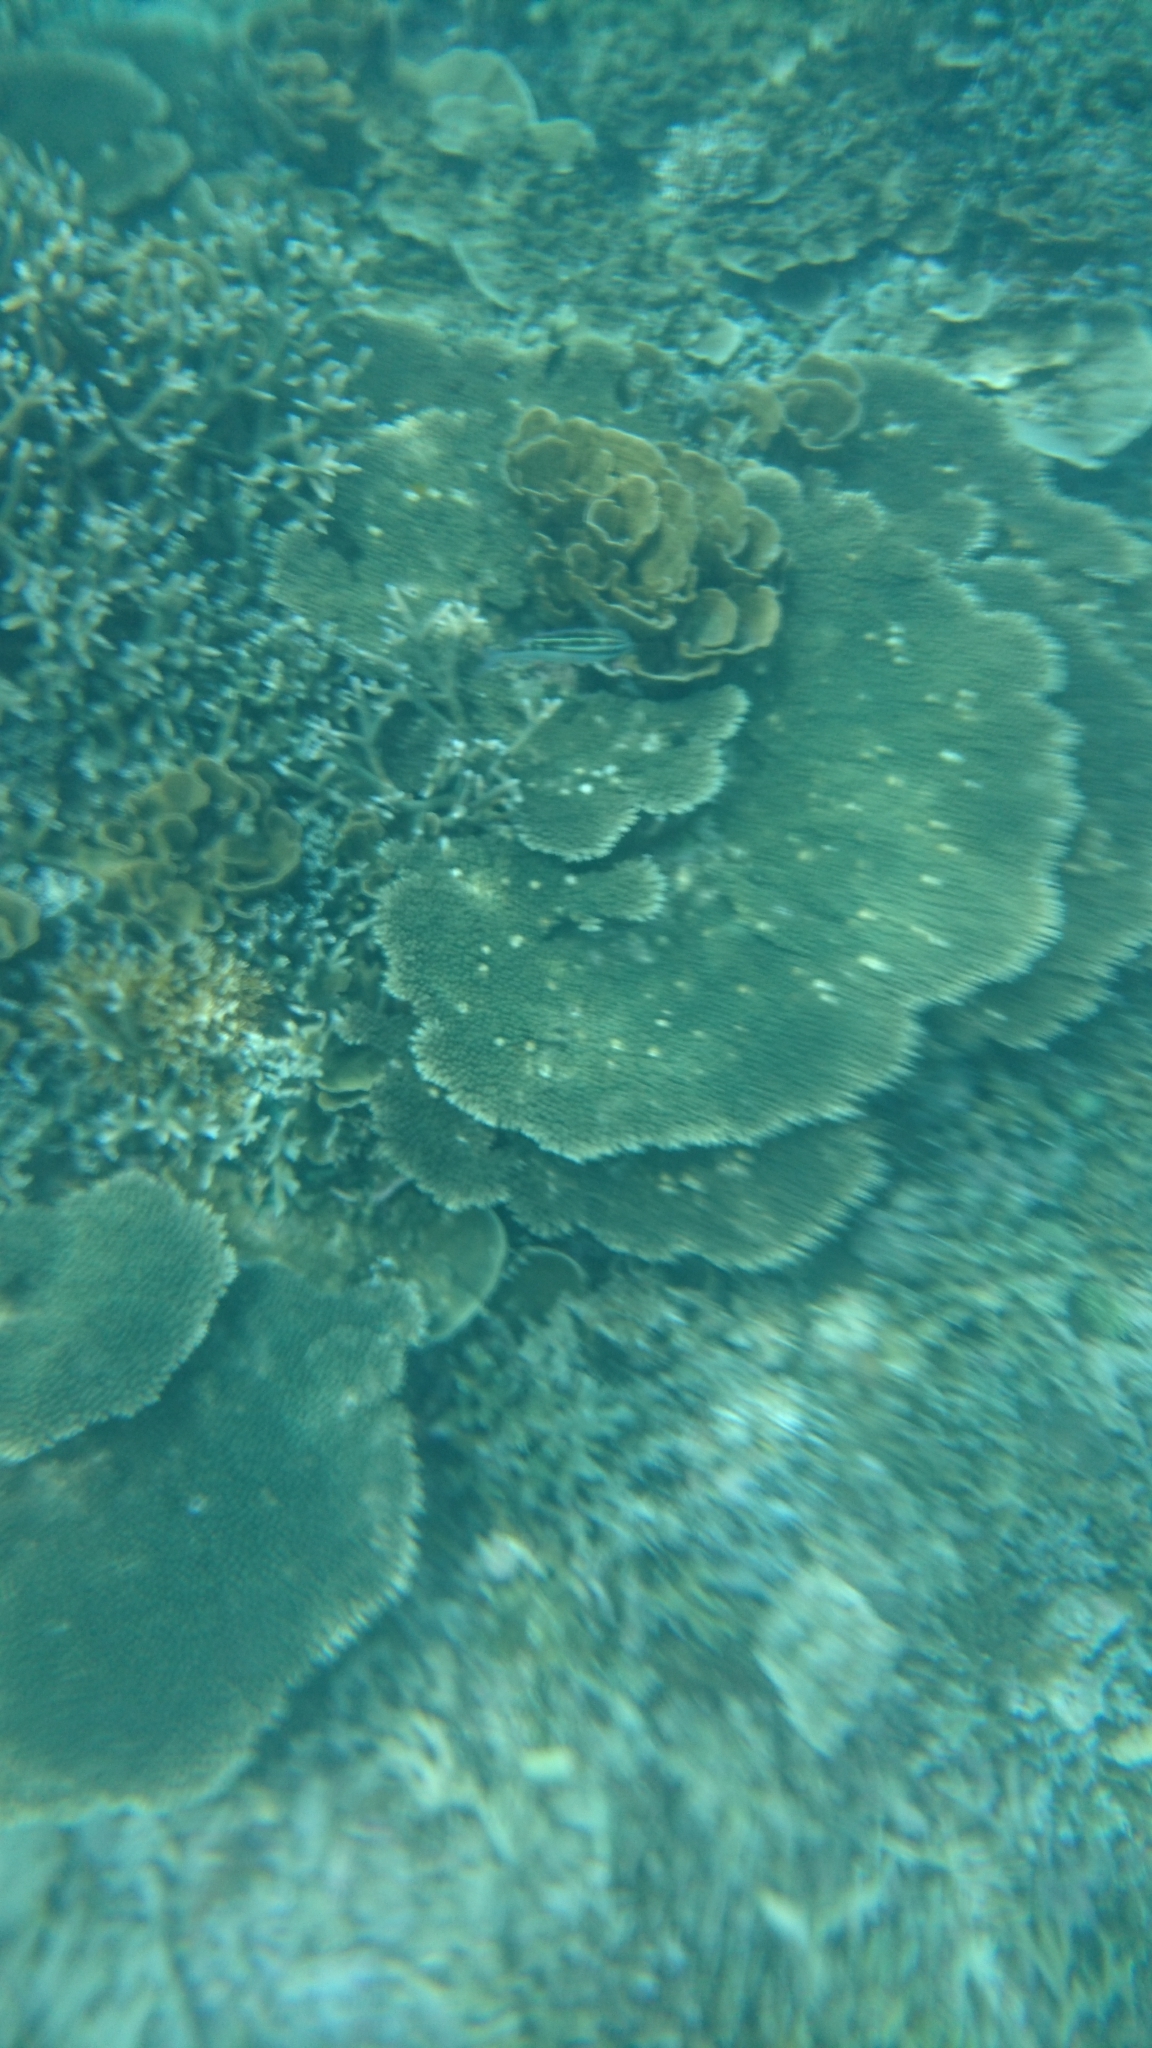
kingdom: Animalia
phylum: Cnidaria
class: Anthozoa
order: Scleractinia
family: Acroporidae
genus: Acropora
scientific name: Acropora
